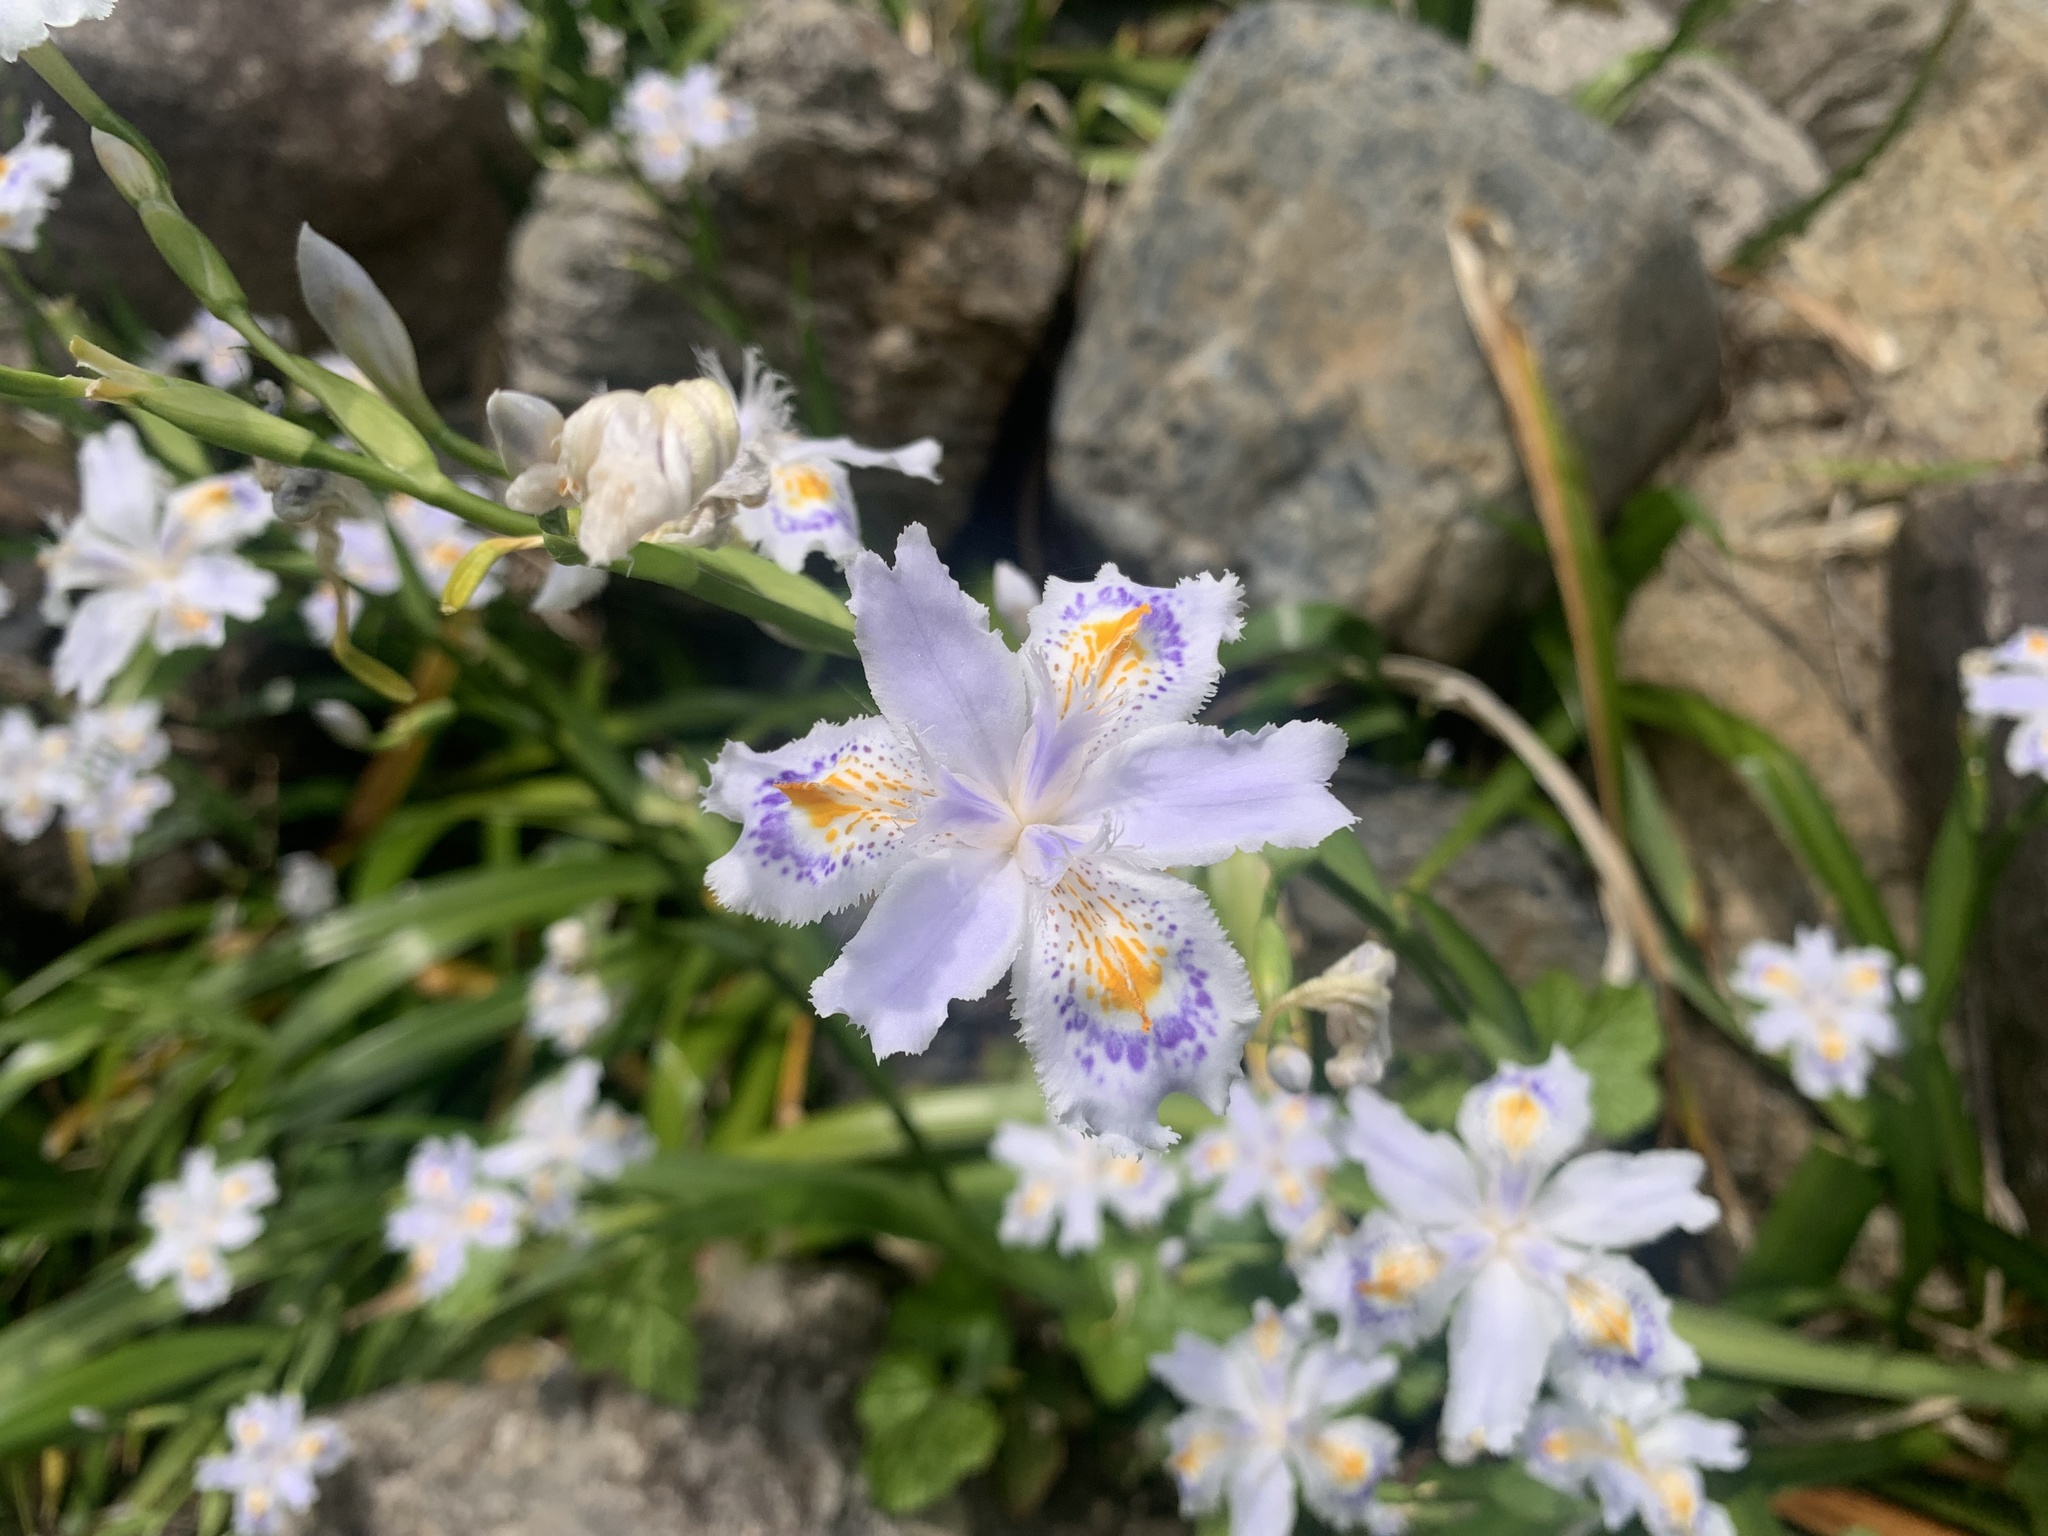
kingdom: Plantae
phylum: Tracheophyta
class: Liliopsida
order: Asparagales
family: Iridaceae
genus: Iris
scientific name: Iris japonica
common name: Butterfly-flower
